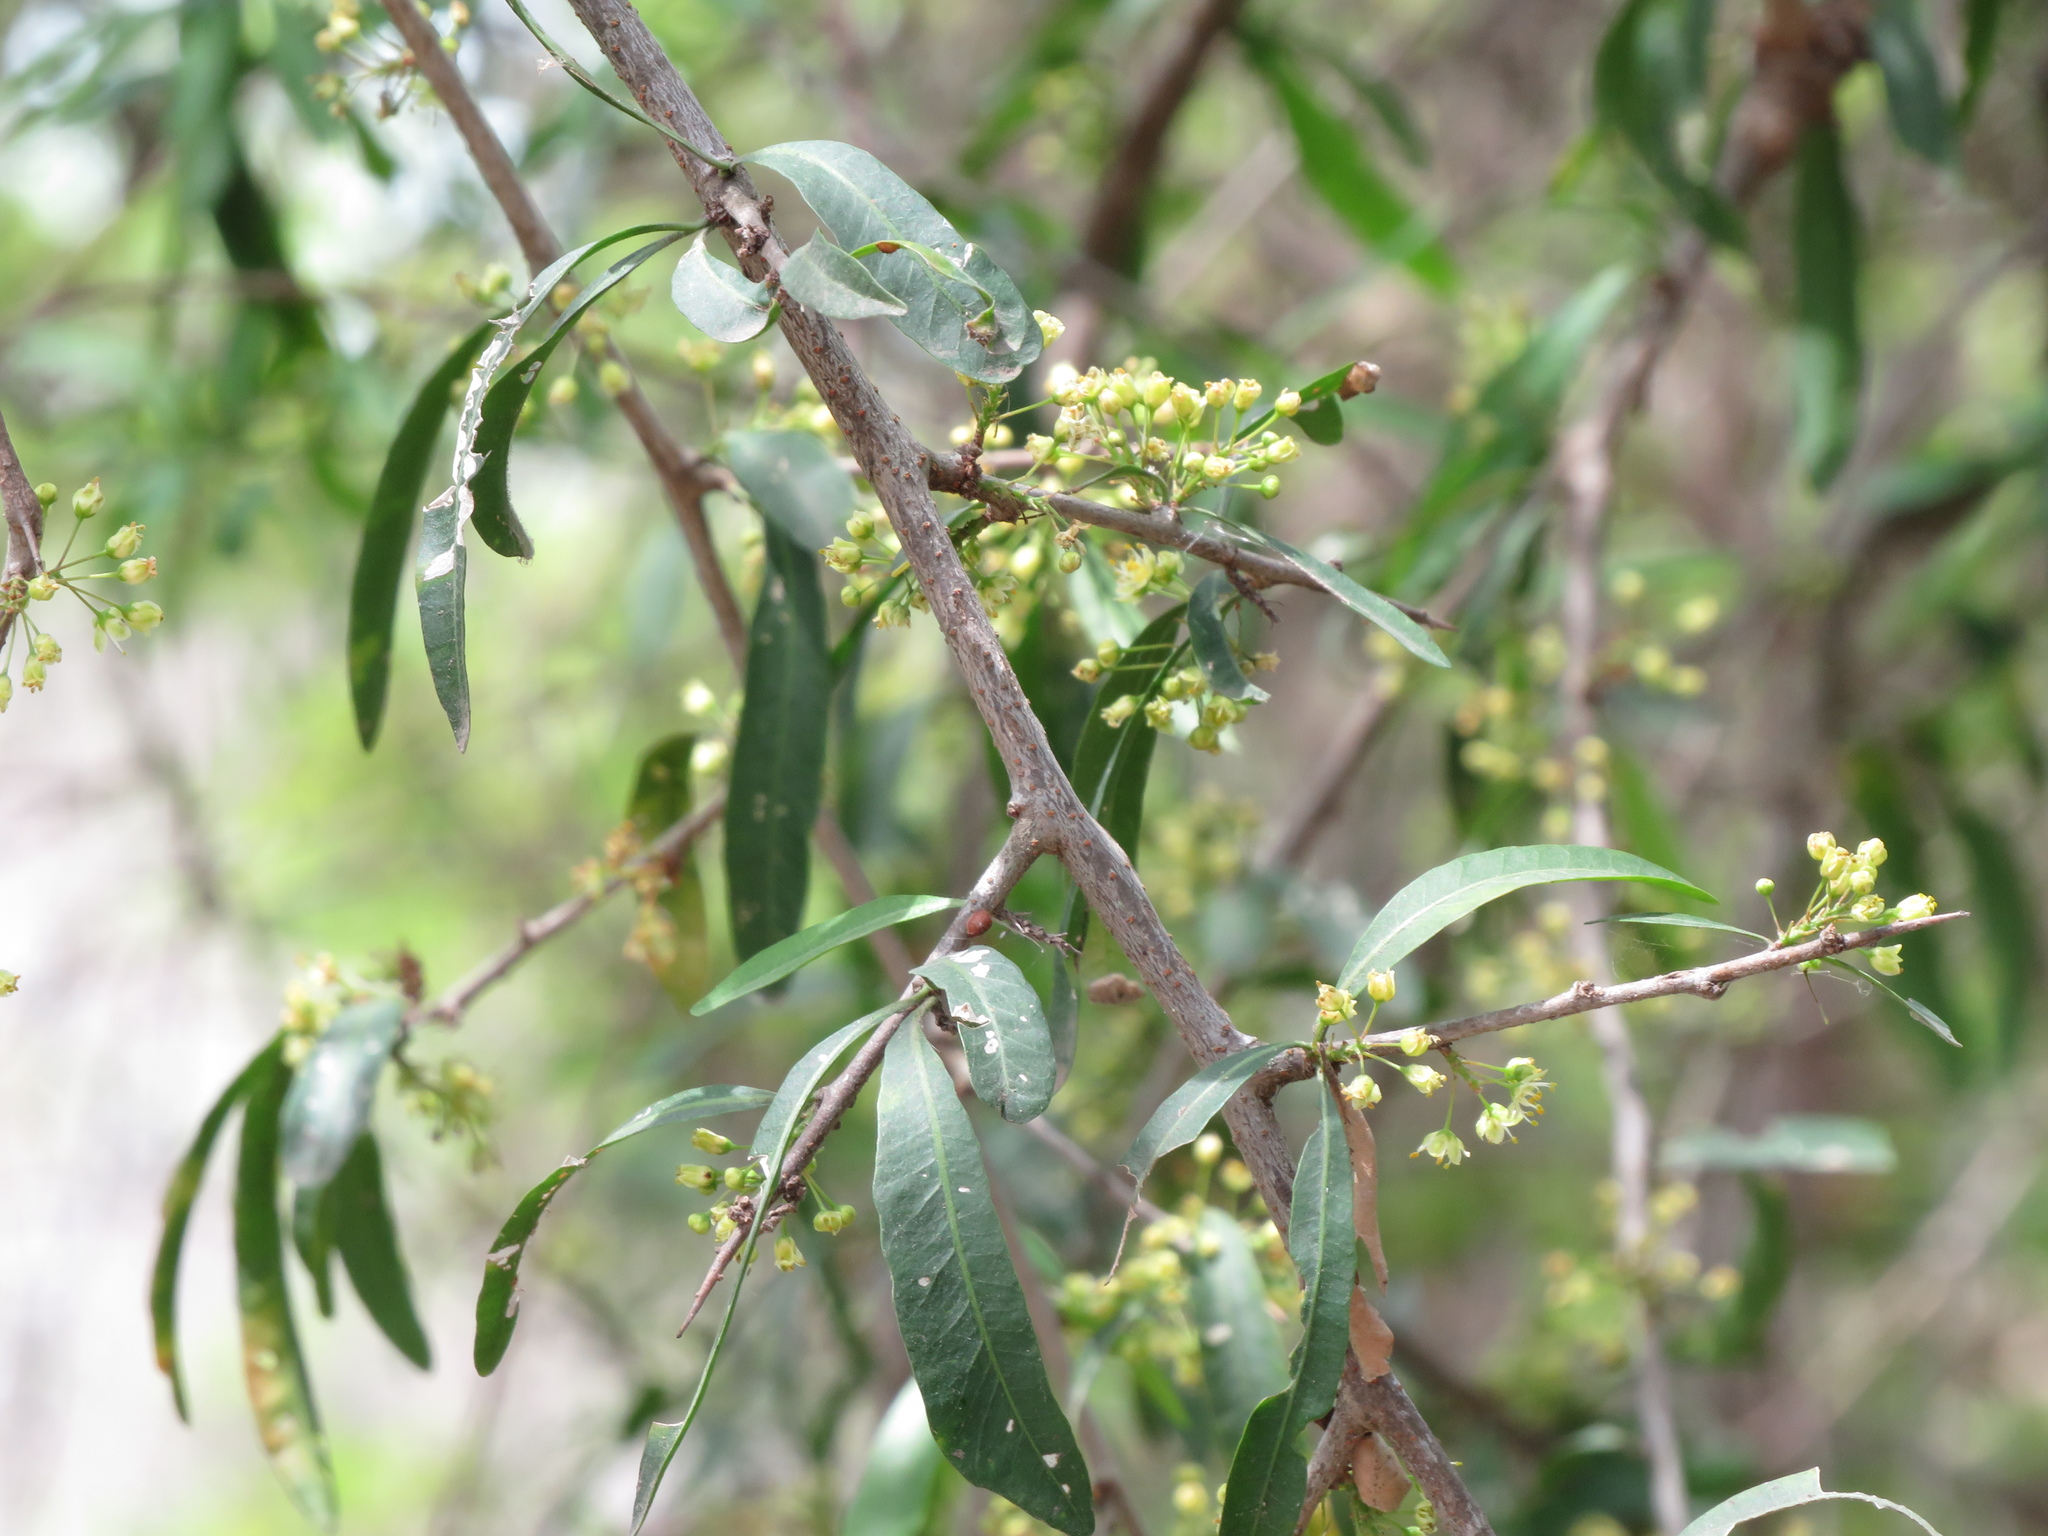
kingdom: Plantae
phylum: Tracheophyta
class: Magnoliopsida
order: Sapindales
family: Anacardiaceae
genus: Schinus
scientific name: Schinus longifolia
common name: Longleaf peppertree
